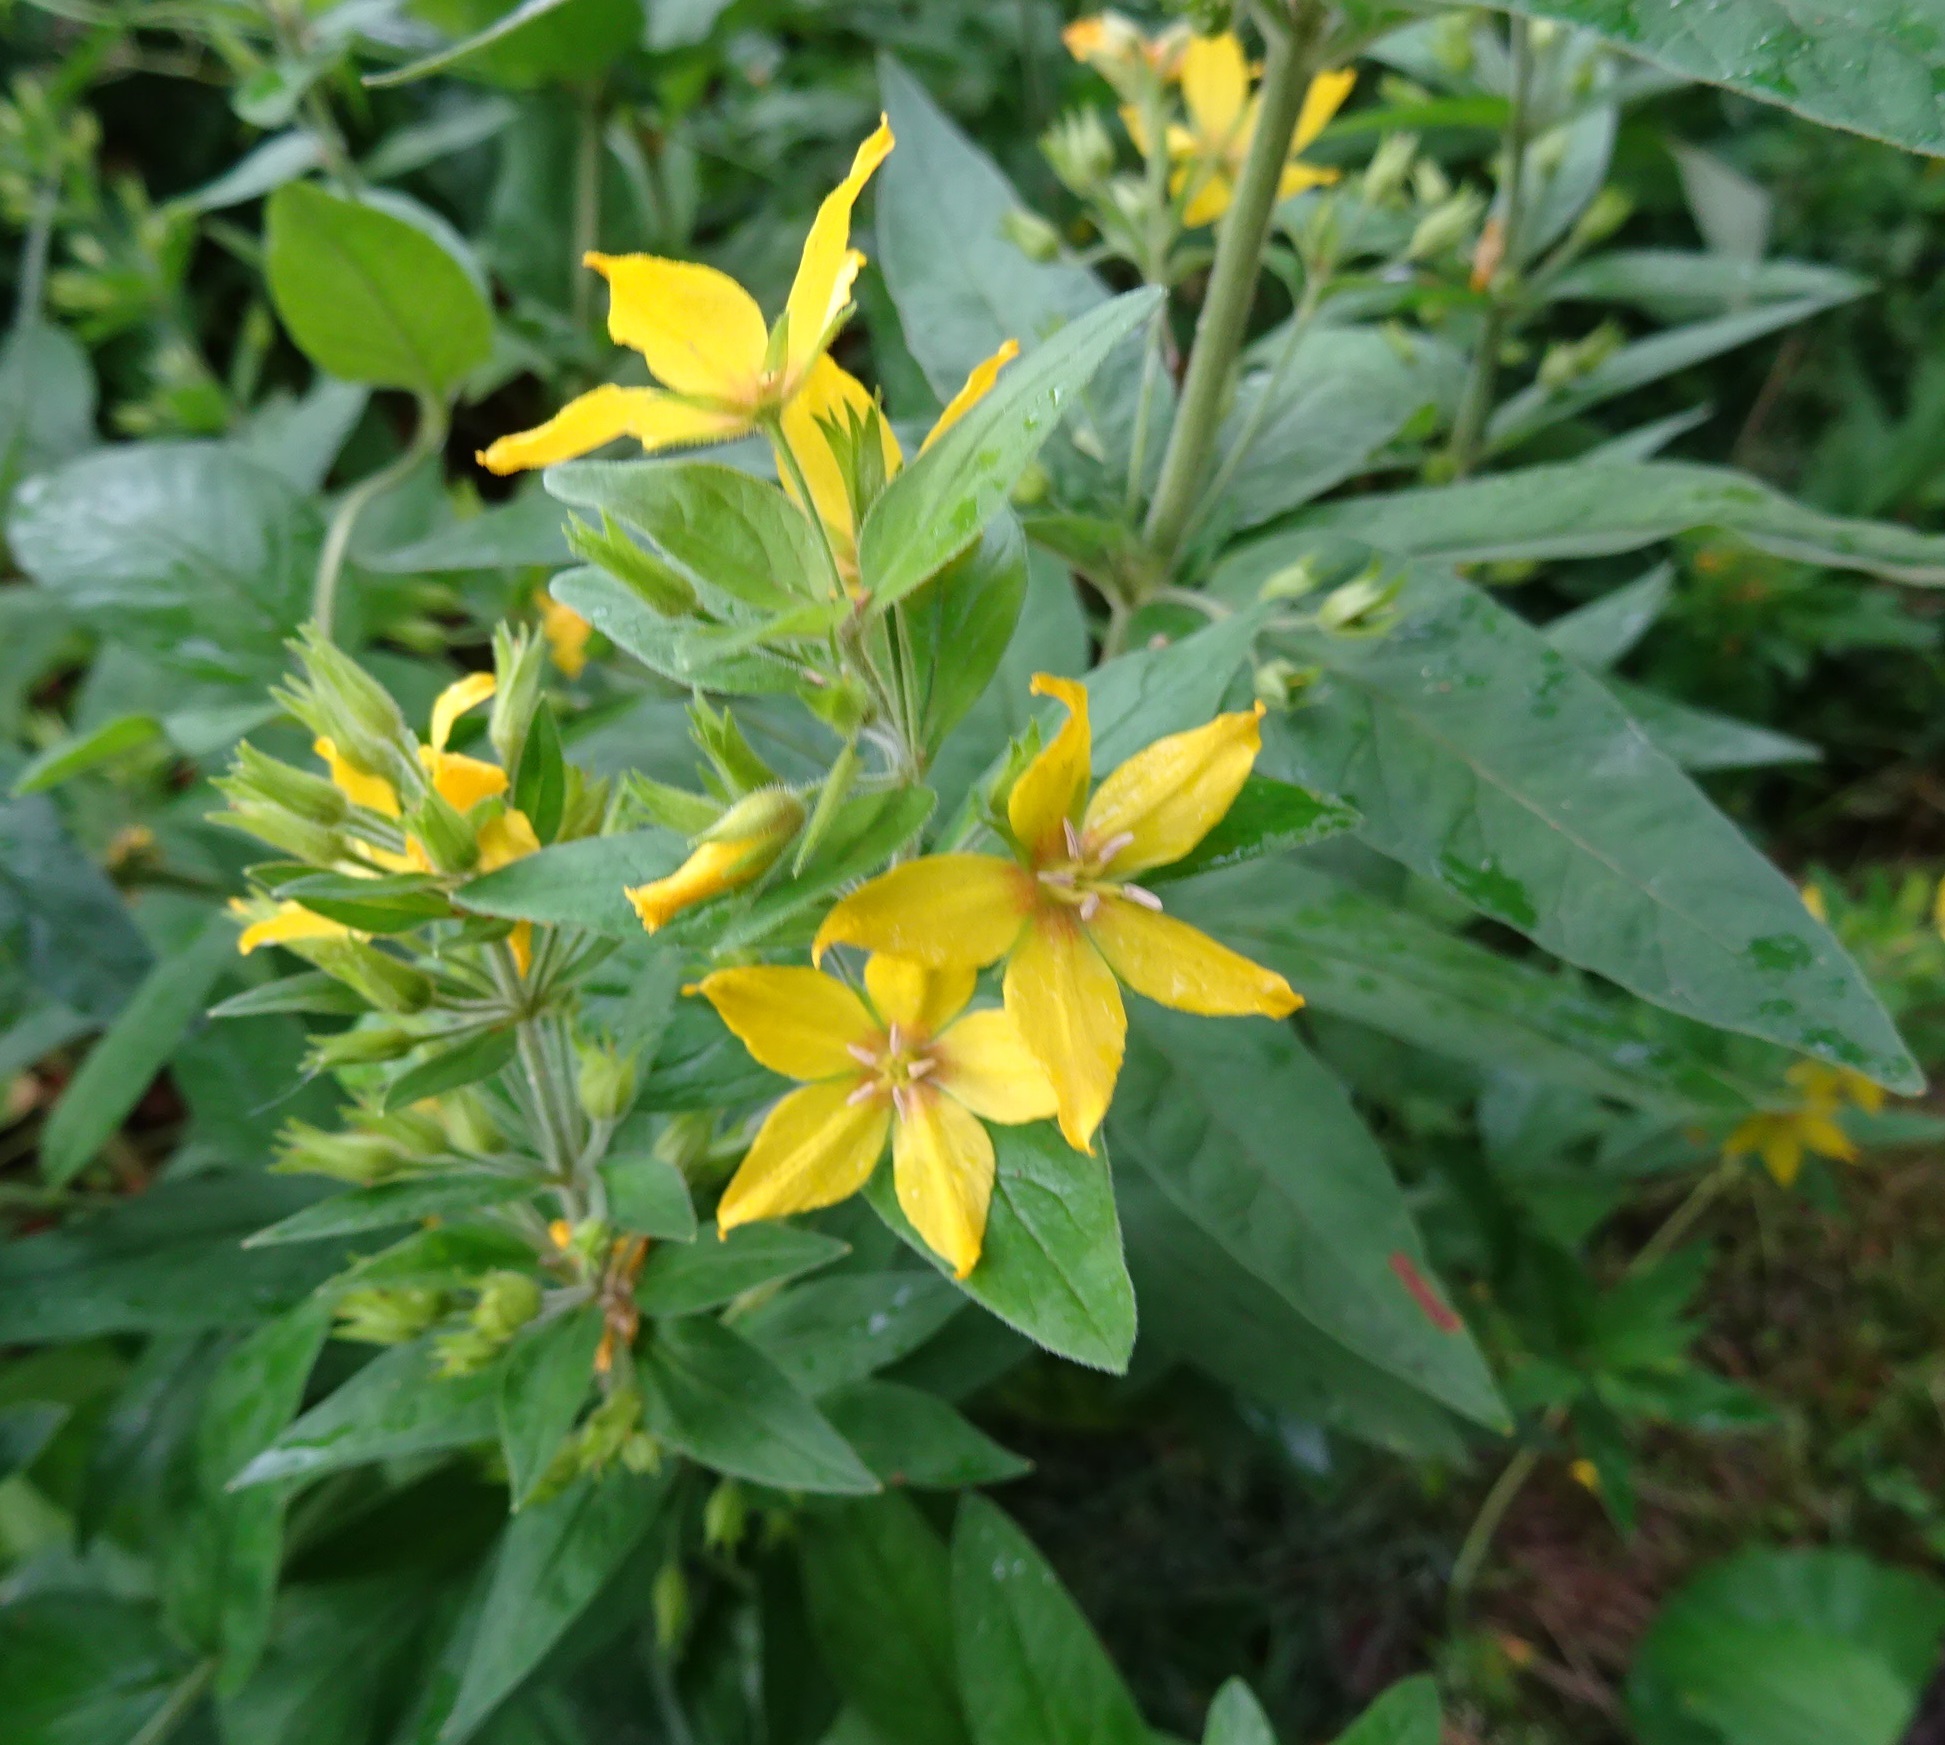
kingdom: Plantae
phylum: Tracheophyta
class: Magnoliopsida
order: Ericales
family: Primulaceae
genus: Lysimachia
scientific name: Lysimachia punctata
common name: Dotted loosestrife
